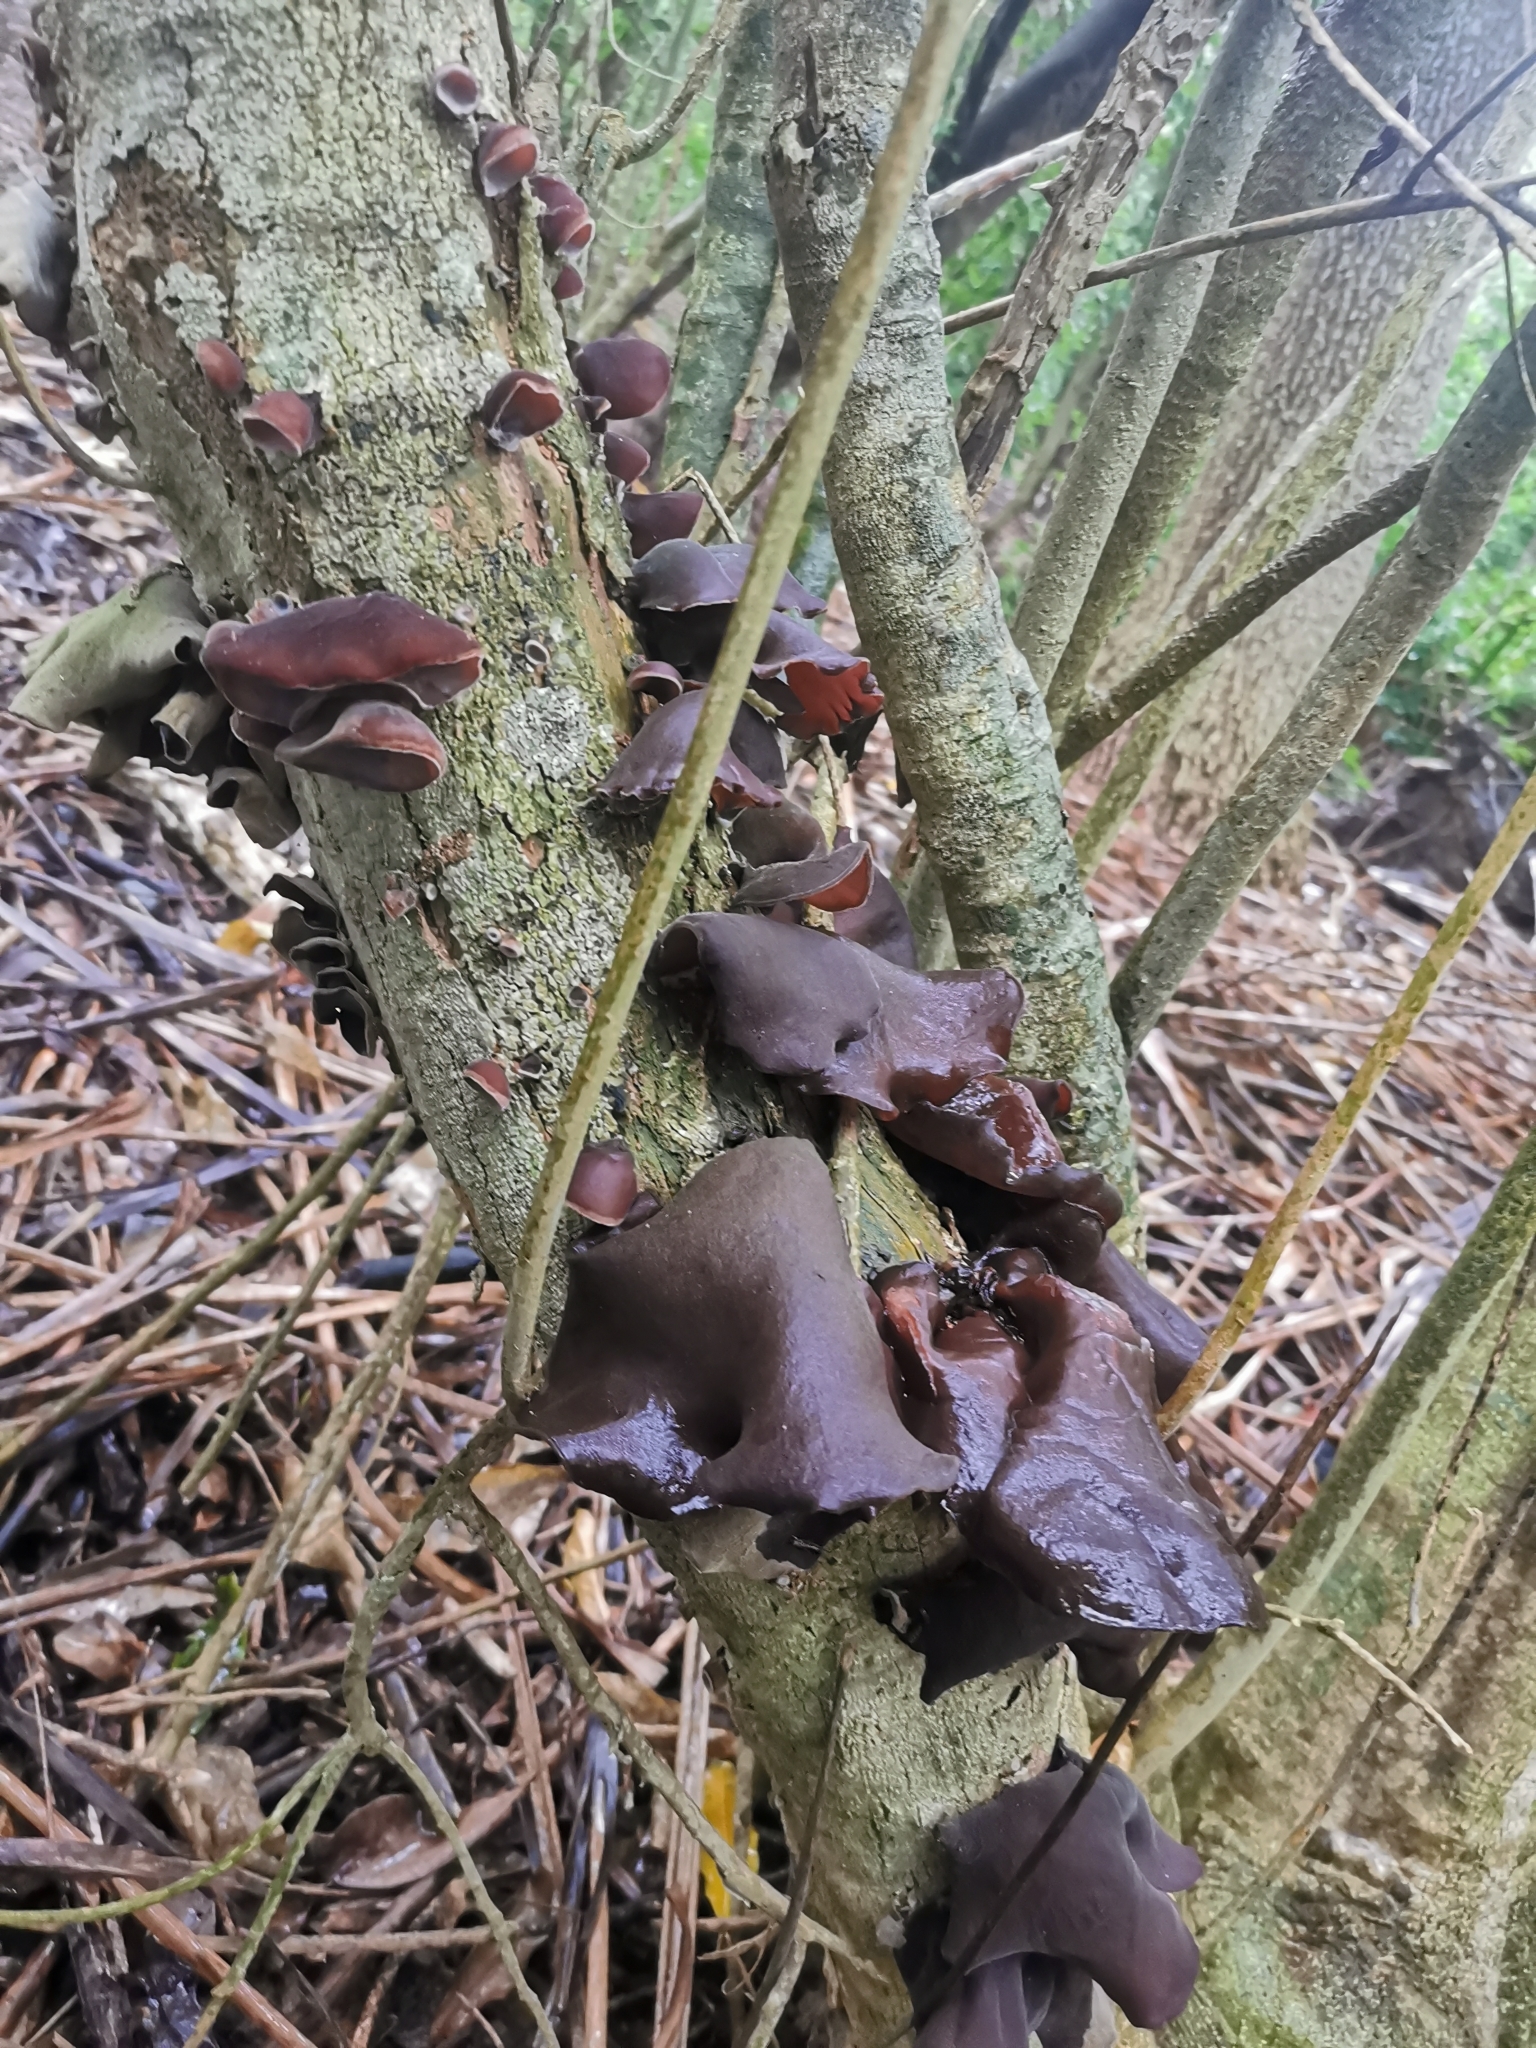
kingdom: Fungi
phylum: Basidiomycota
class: Agaricomycetes
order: Auriculariales
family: Auriculariaceae
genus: Auricularia
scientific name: Auricularia cornea
